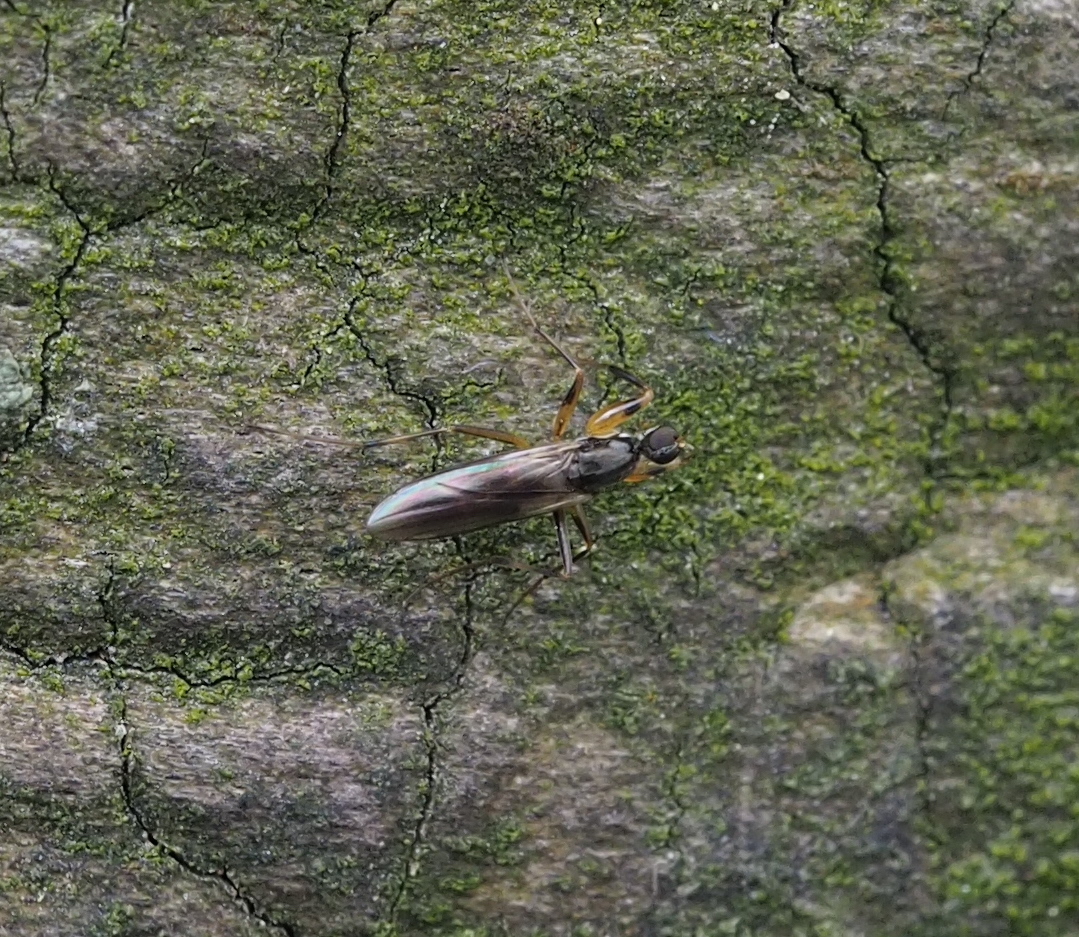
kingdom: Animalia
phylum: Arthropoda
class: Insecta
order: Diptera
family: Hybotidae
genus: Tachypeza
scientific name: Tachypeza nubila
